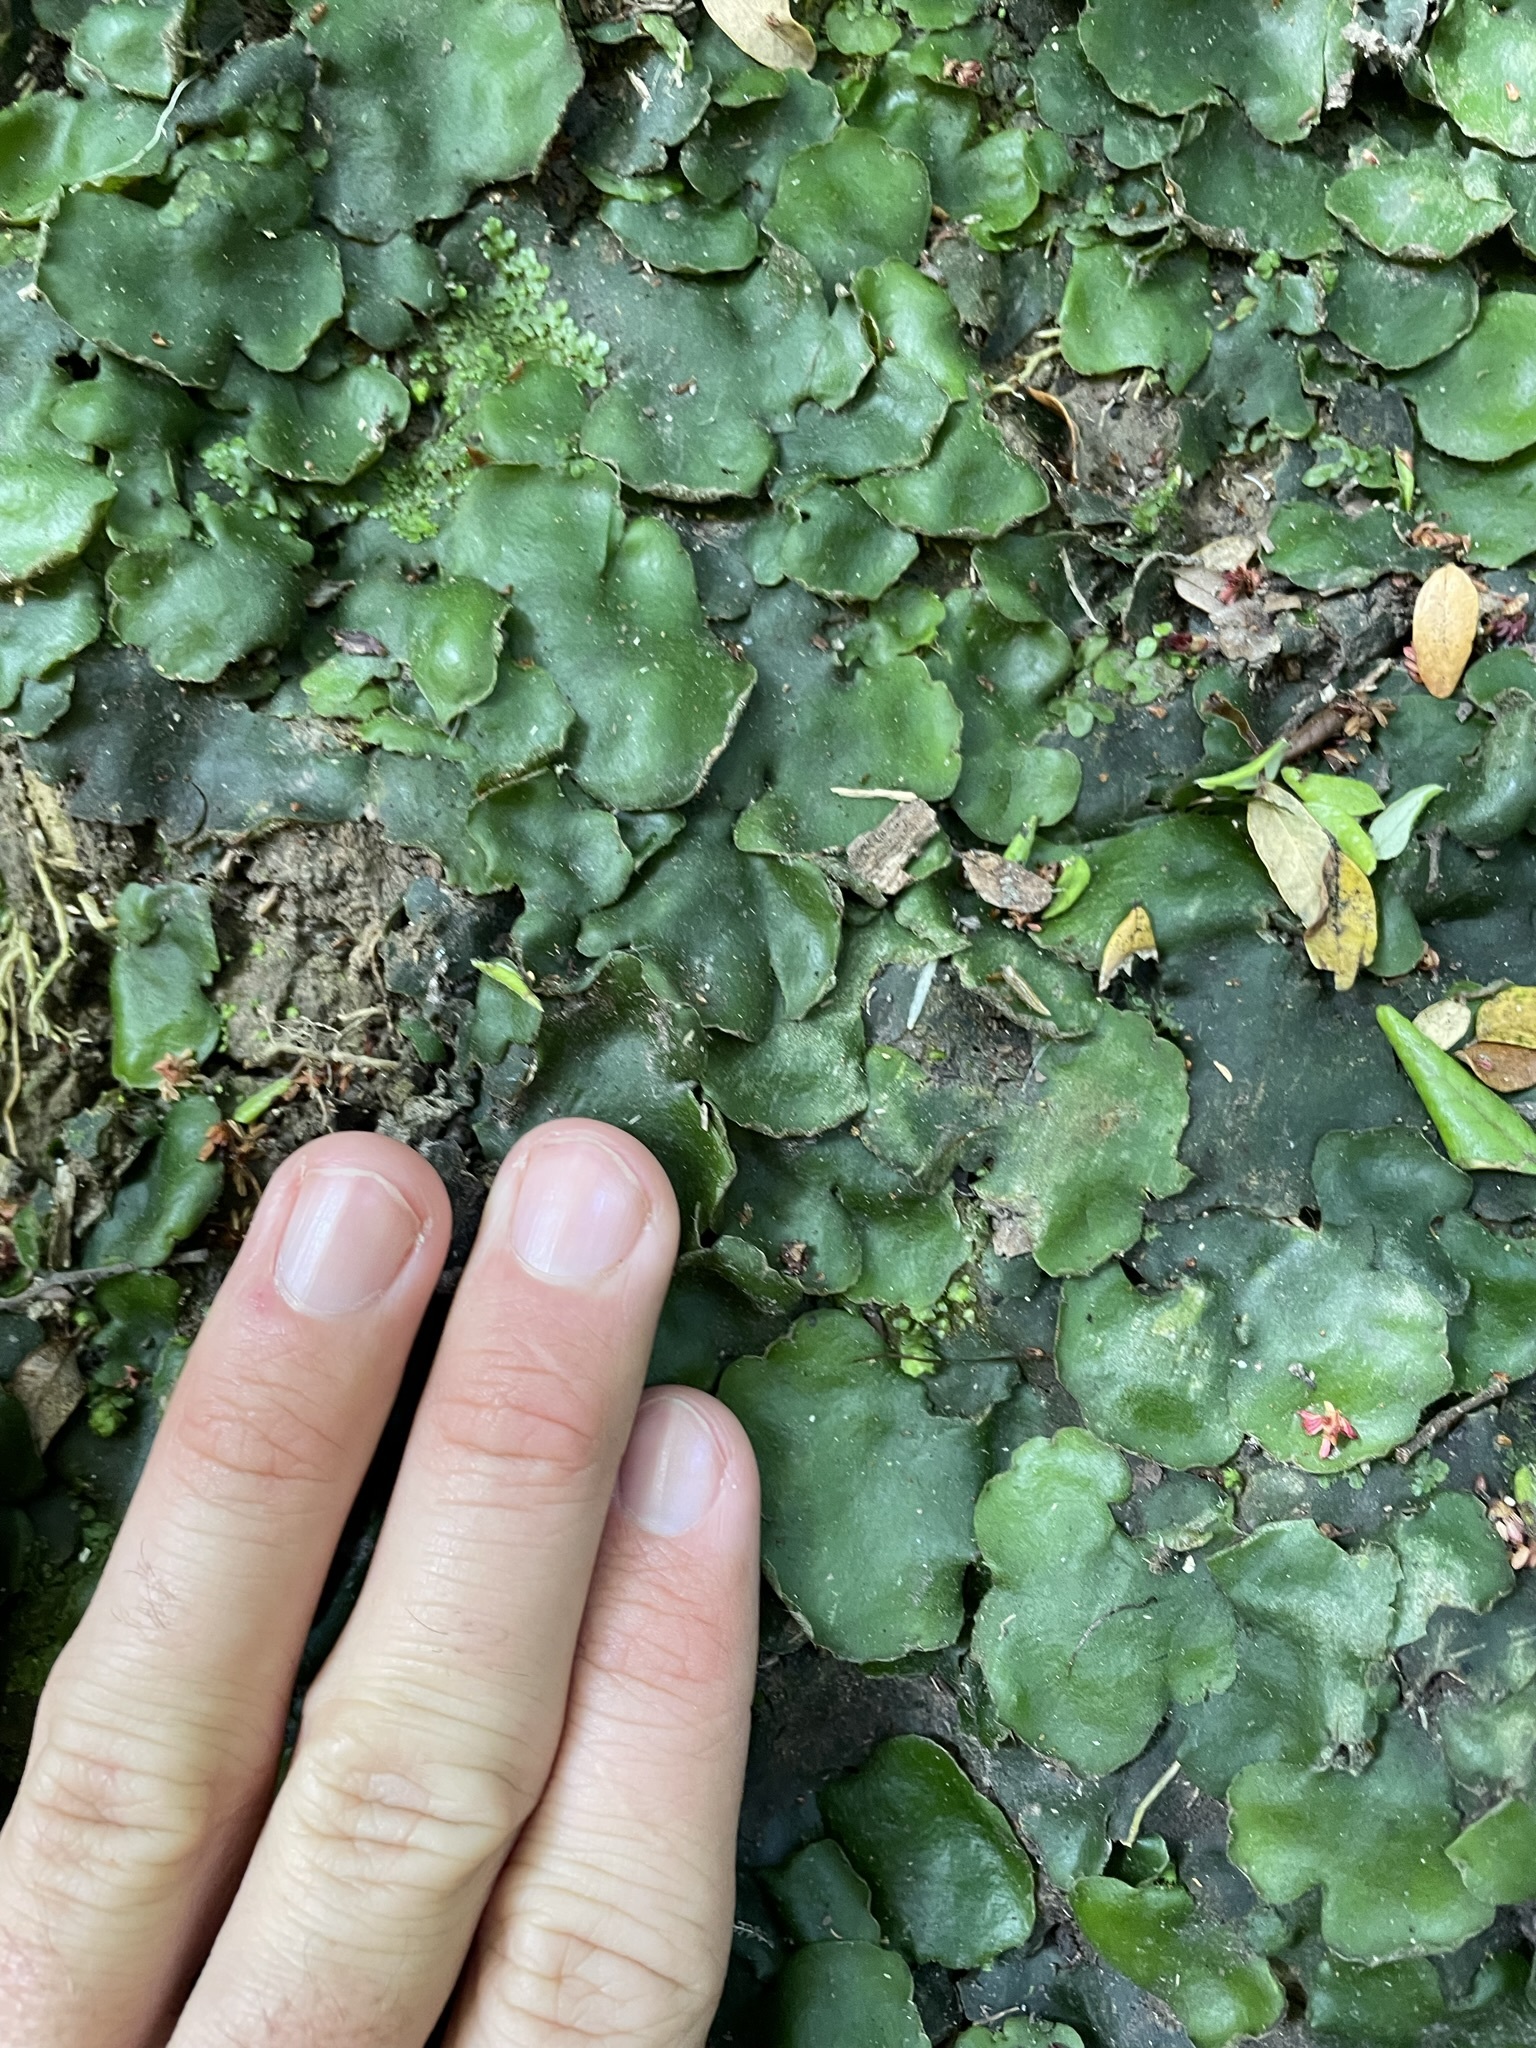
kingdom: Plantae
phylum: Marchantiophyta
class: Marchantiopsida
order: Marchantiales
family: Monocleaceae
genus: Monoclea
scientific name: Monoclea forsteri
